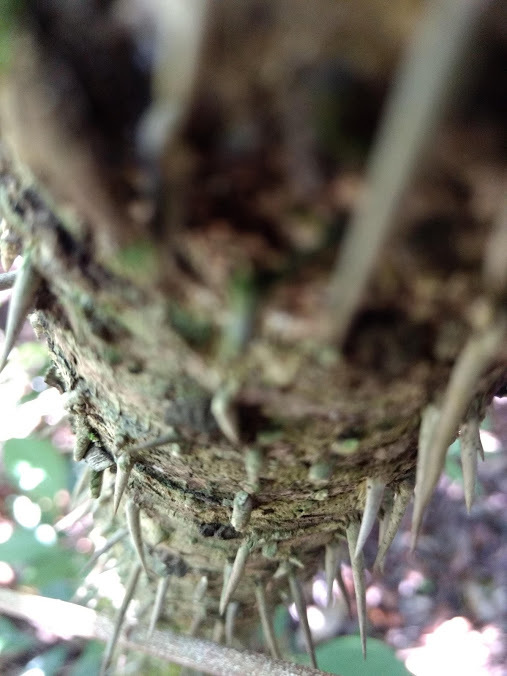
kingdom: Plantae
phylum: Tracheophyta
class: Liliopsida
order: Arecales
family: Arecaceae
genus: Astrocaryum
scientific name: Astrocaryum mexicanum
